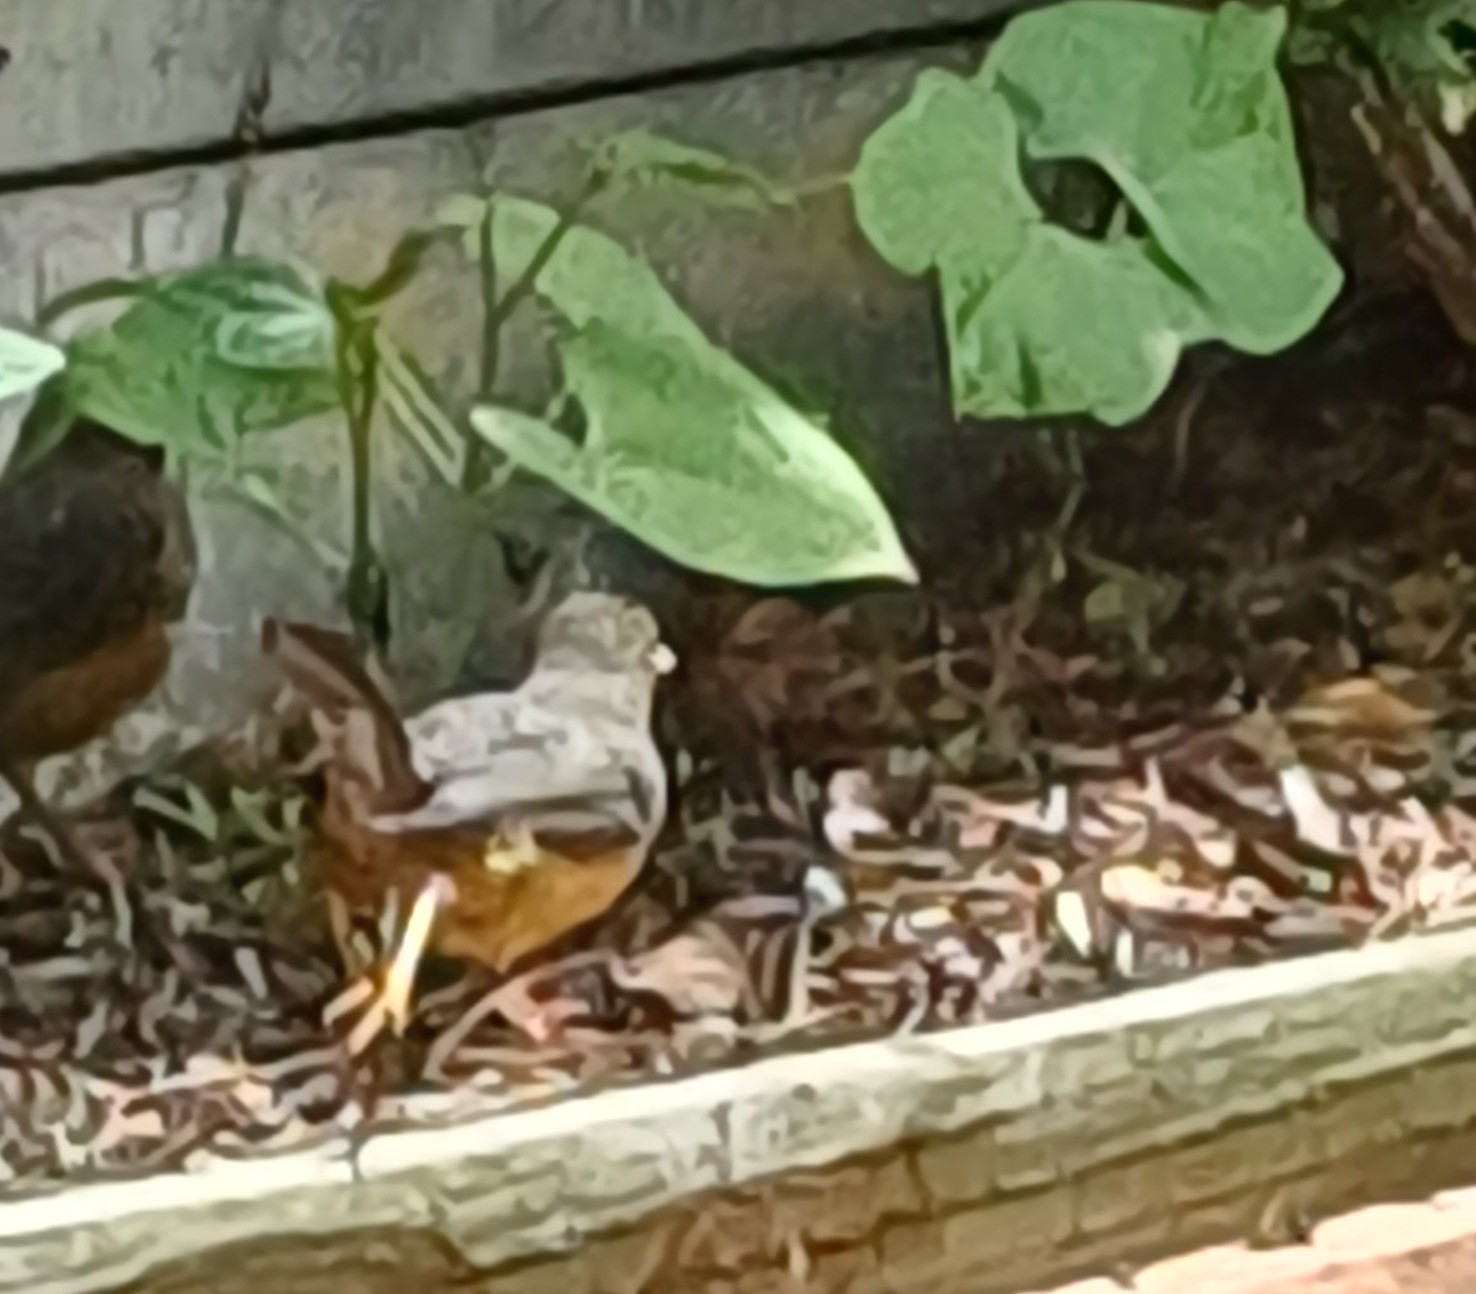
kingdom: Animalia
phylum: Chordata
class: Aves
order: Passeriformes
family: Turdidae
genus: Turdus
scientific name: Turdus olivaceus
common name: Olive thrush
